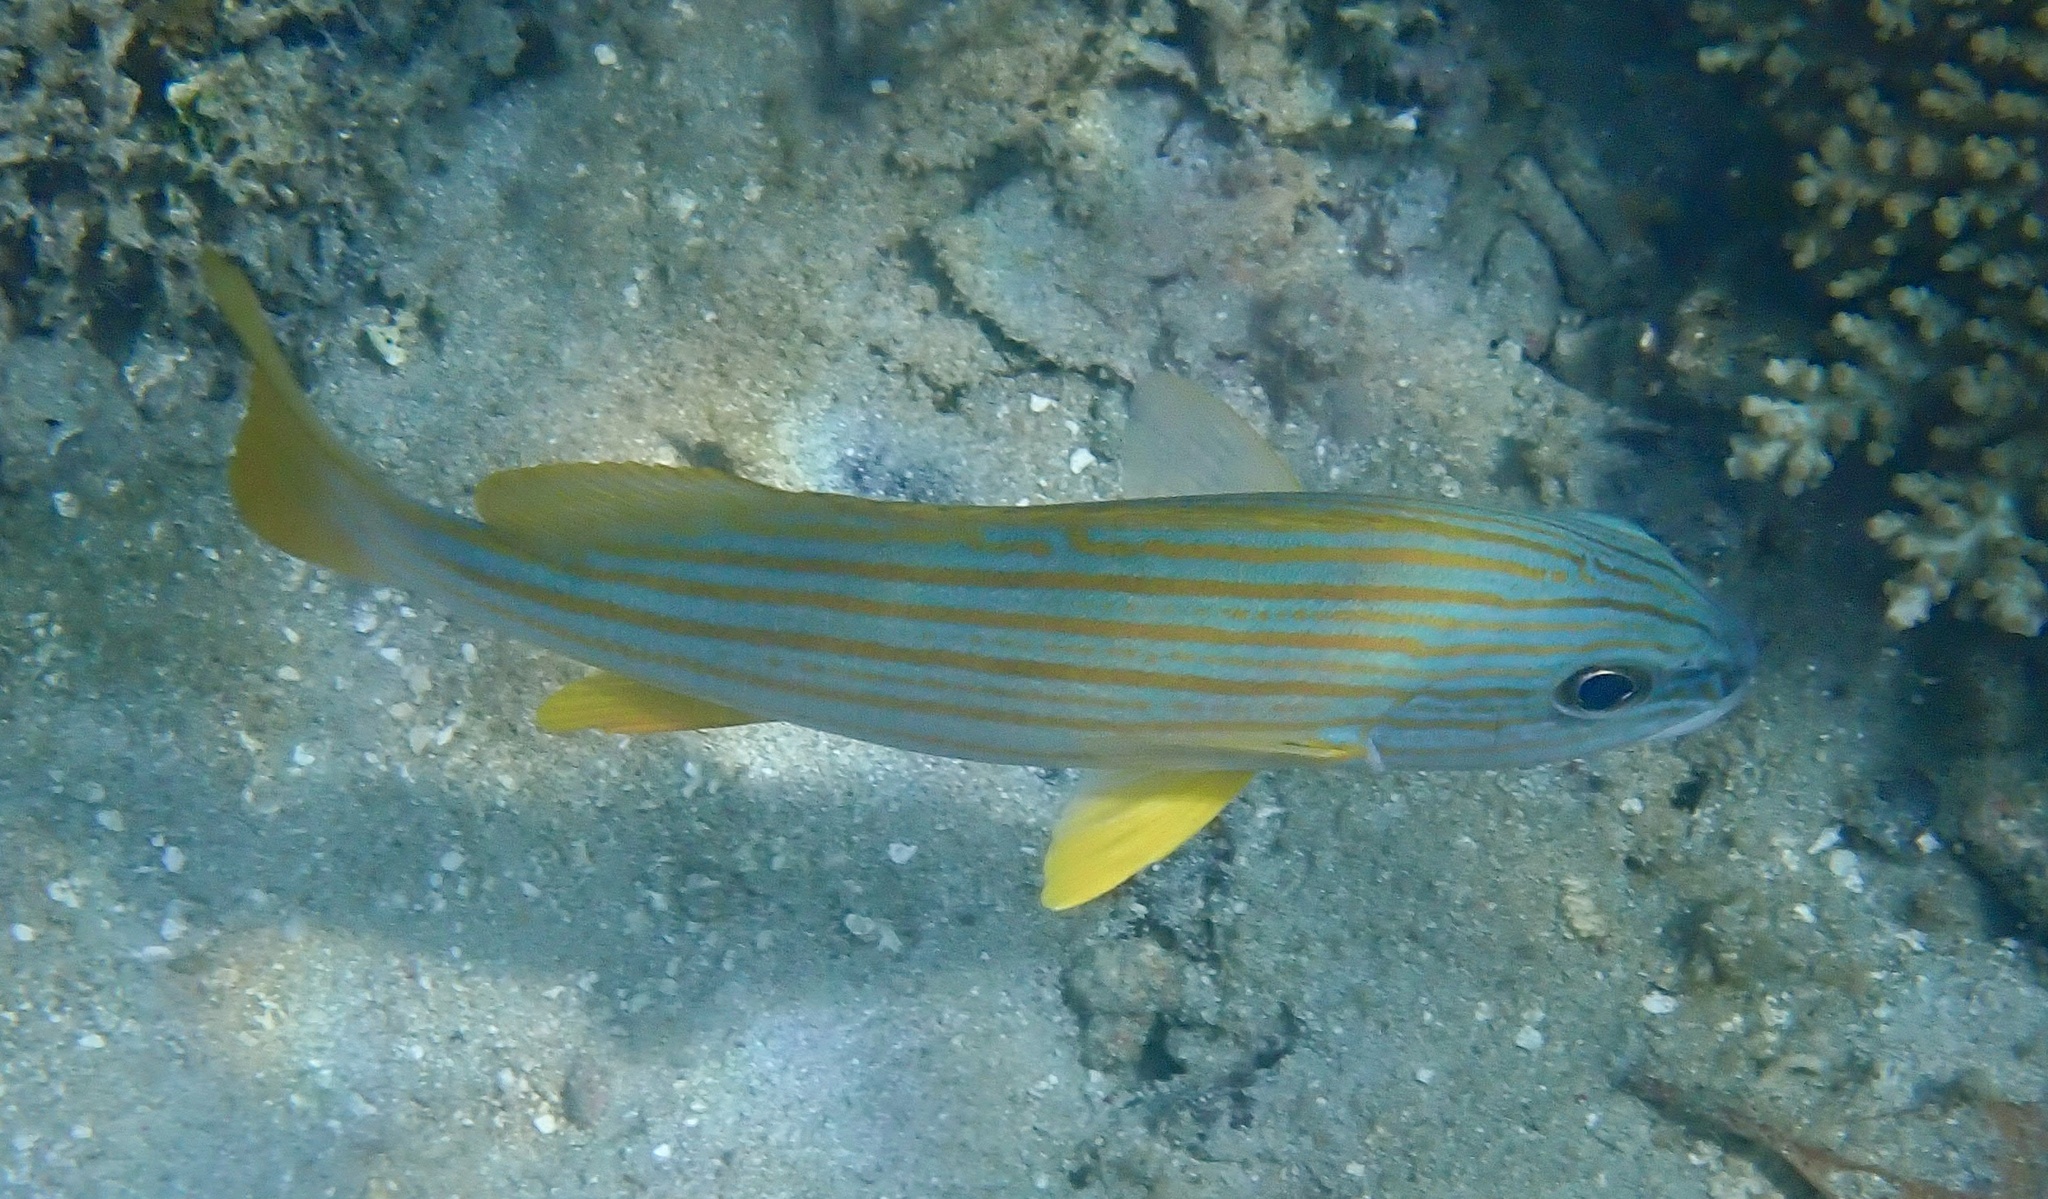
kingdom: Animalia
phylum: Chordata
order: Perciformes
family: Haemulidae
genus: Plectorhinchus
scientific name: Plectorhinchus chrysotaenia
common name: Celebes sweetlips
